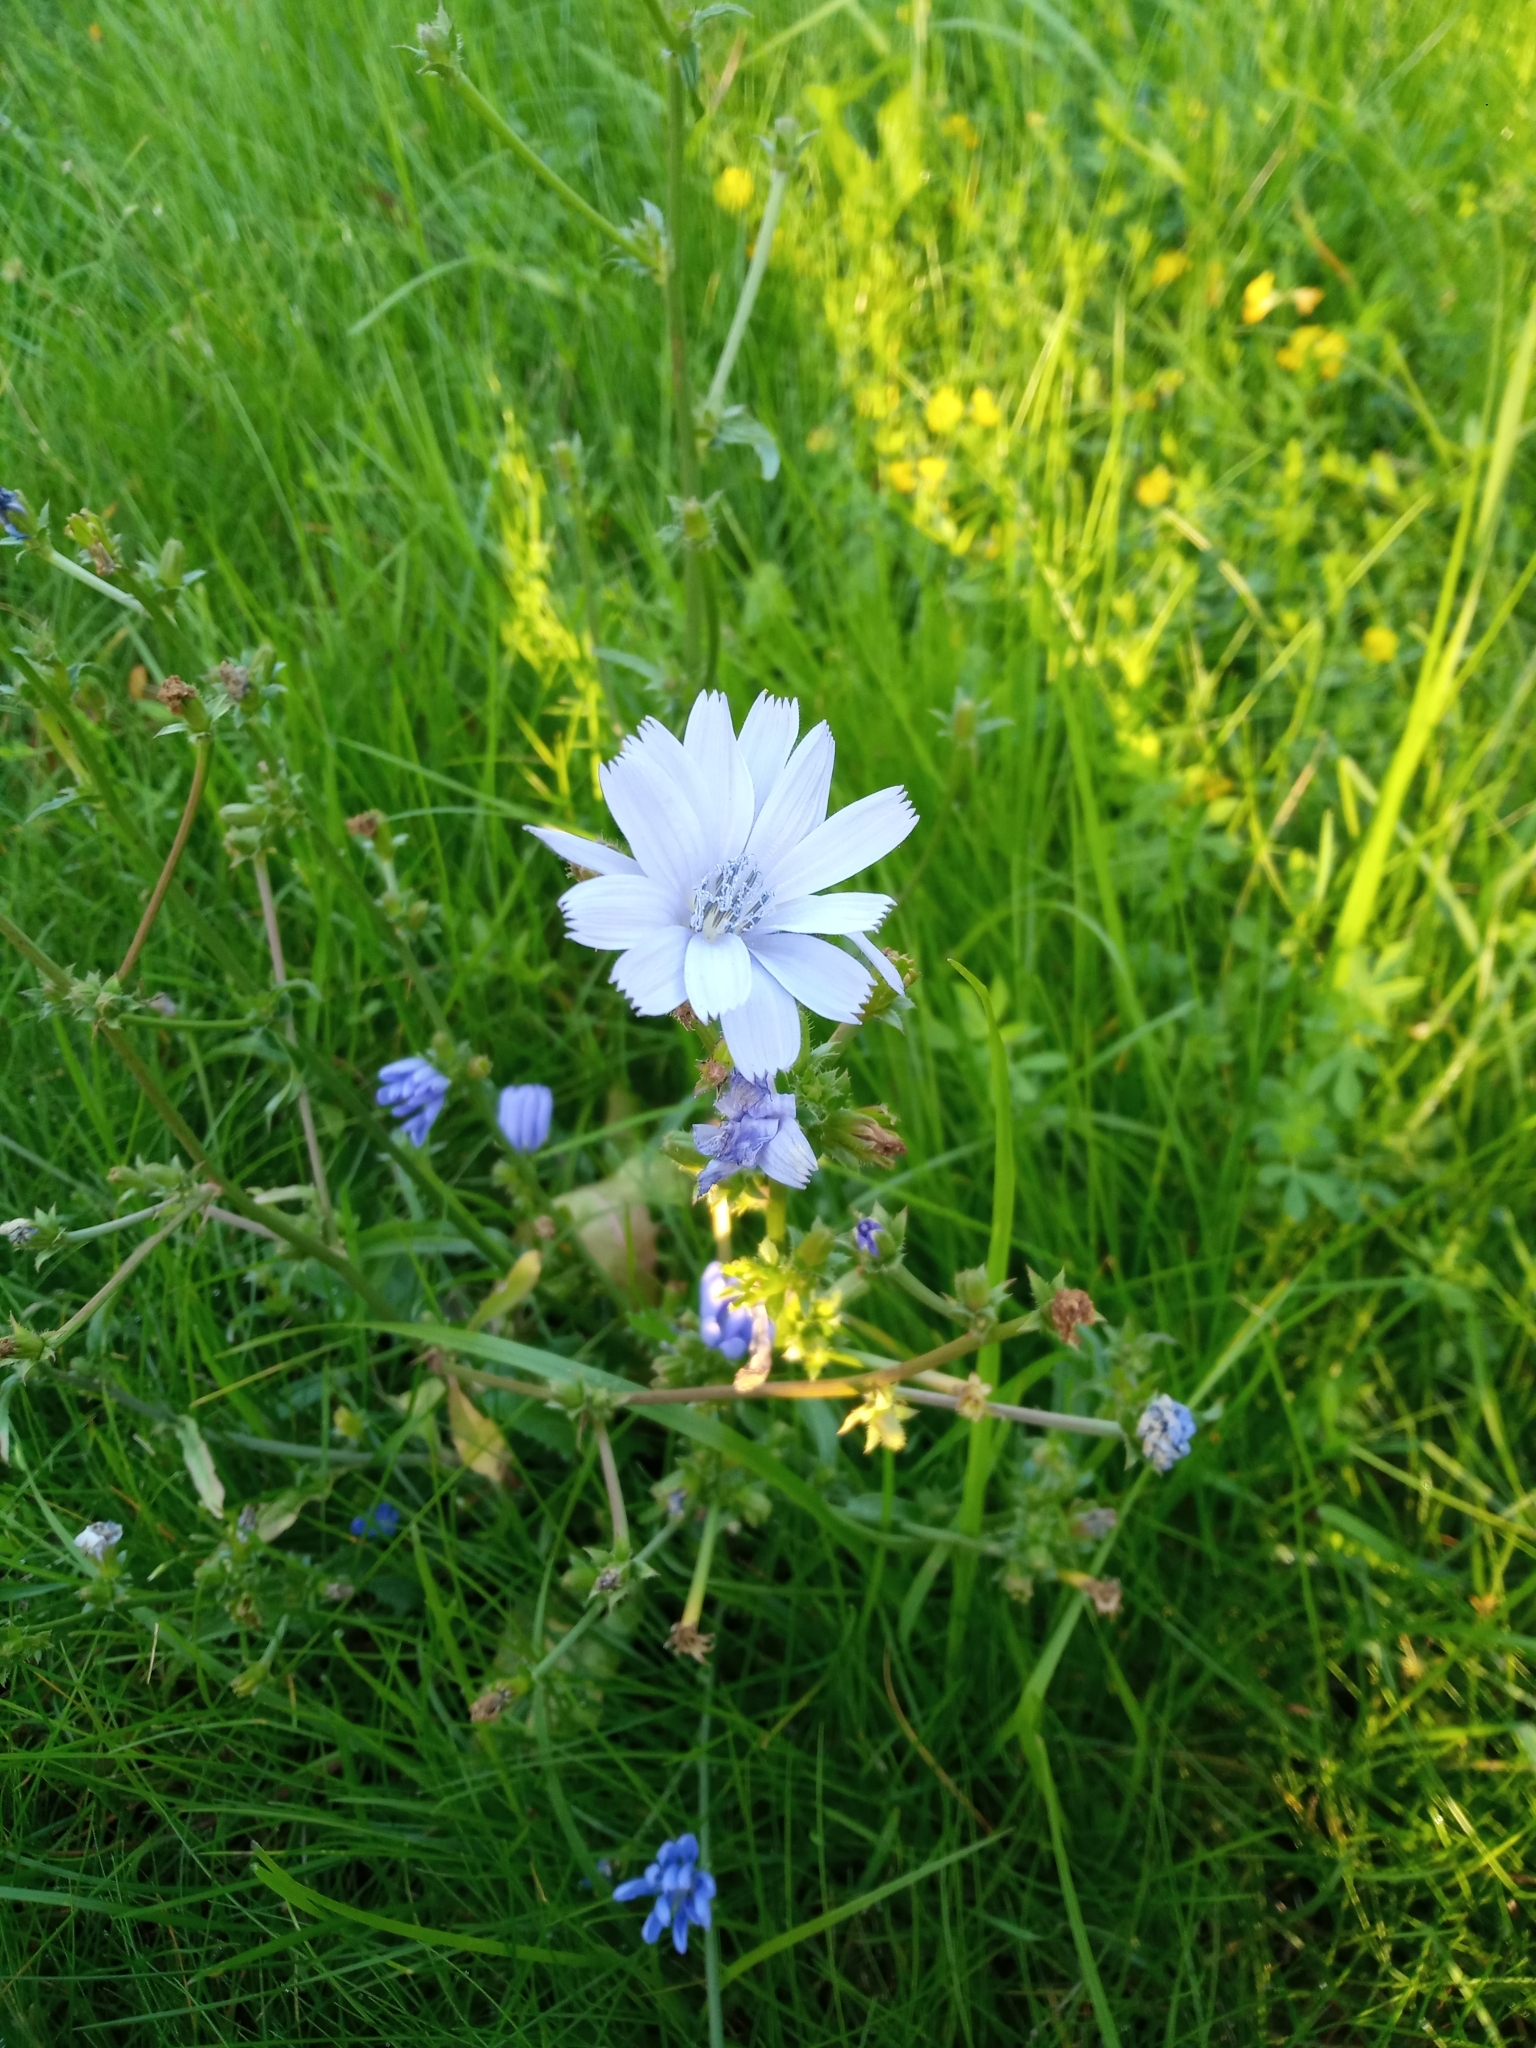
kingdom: Plantae
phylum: Tracheophyta
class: Magnoliopsida
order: Asterales
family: Asteraceae
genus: Cichorium
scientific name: Cichorium intybus
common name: Chicory
